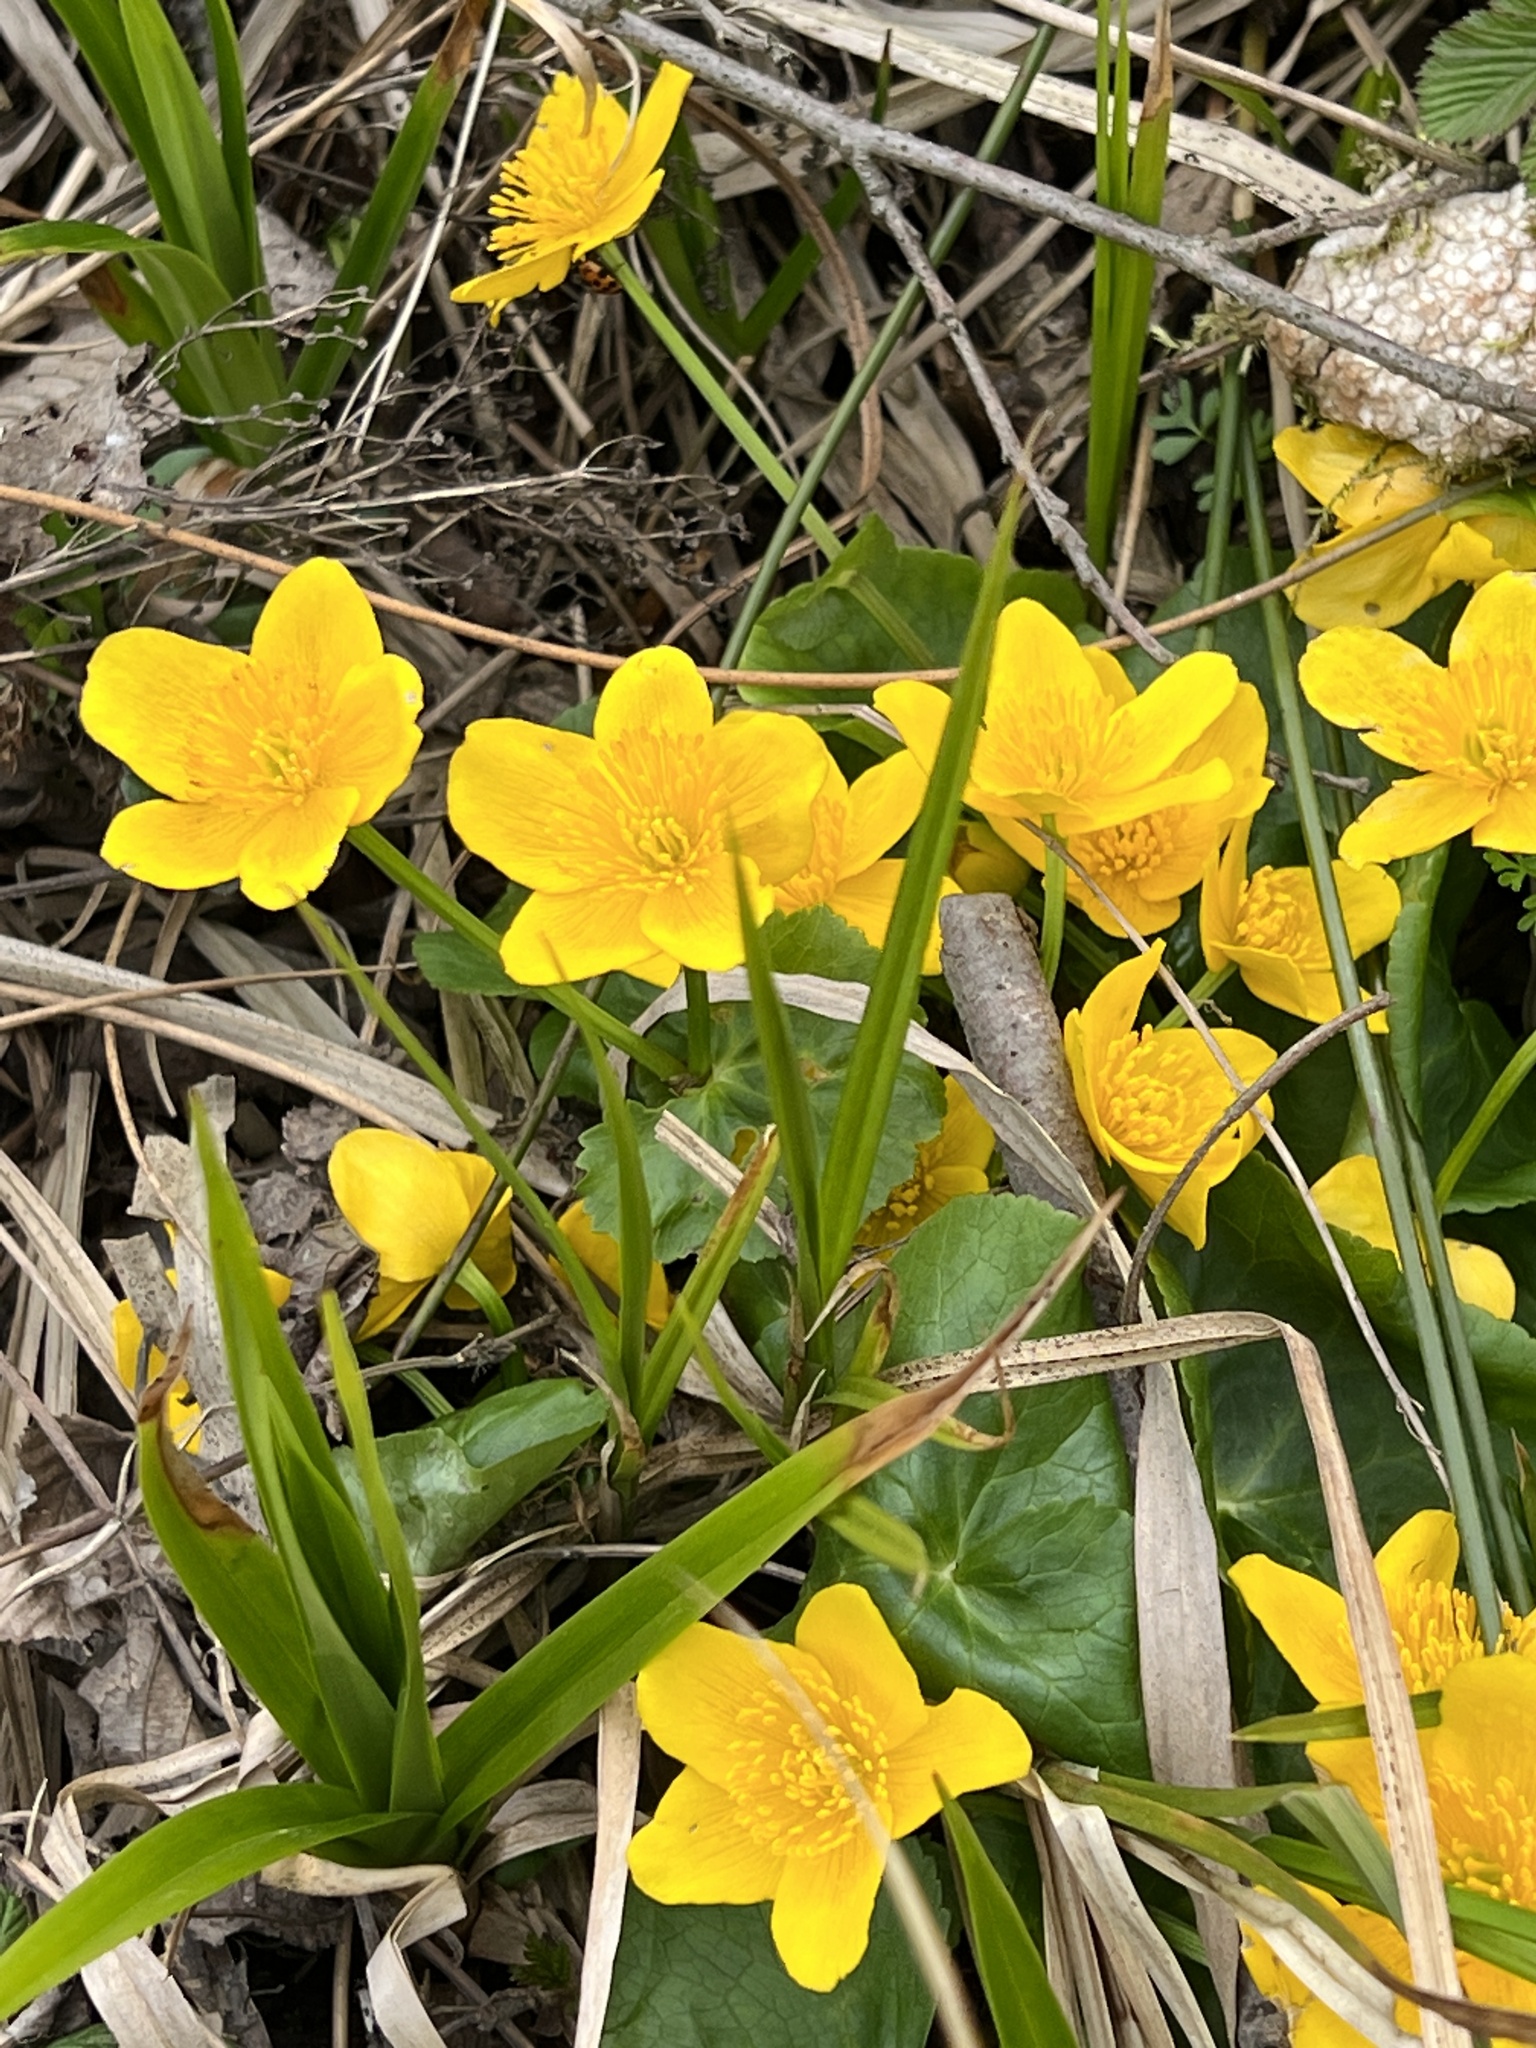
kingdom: Plantae
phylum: Tracheophyta
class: Magnoliopsida
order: Ranunculales
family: Ranunculaceae
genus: Caltha
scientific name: Caltha palustris
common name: Marsh marigold
